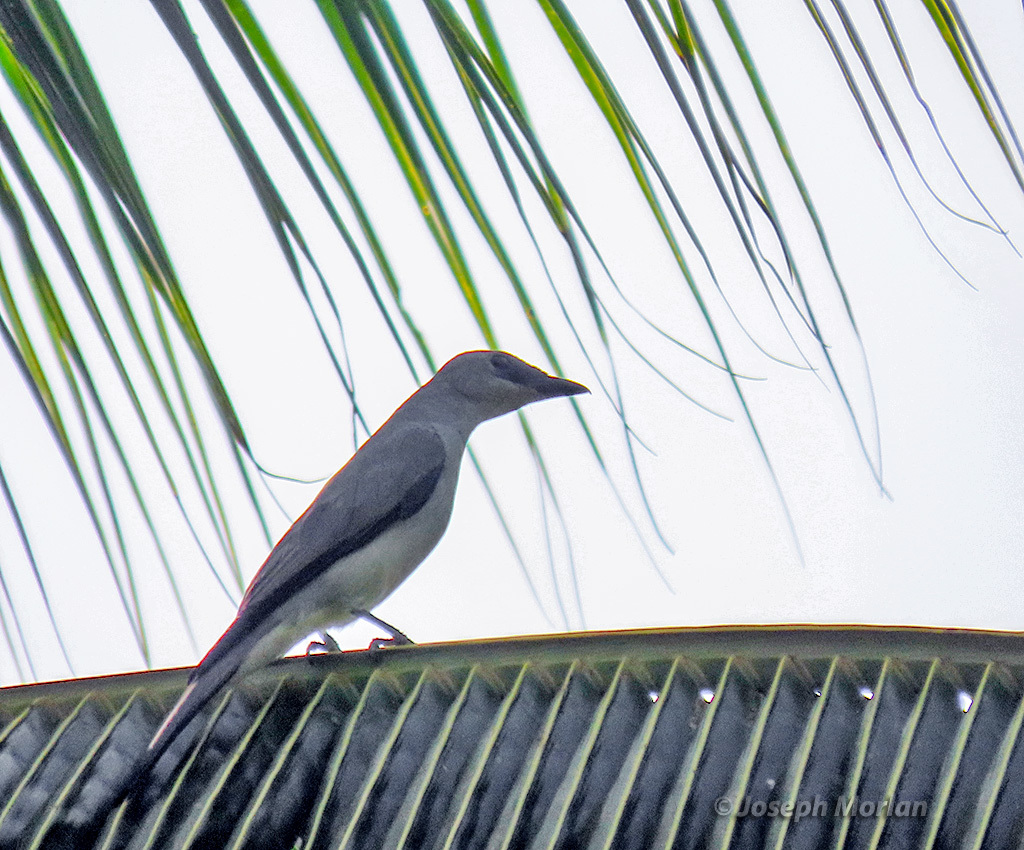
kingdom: Animalia
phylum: Chordata
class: Aves
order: Passeriformes
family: Campephagidae
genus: Coracina
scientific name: Coracina papuensis
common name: White-bellied cuckooshrike
